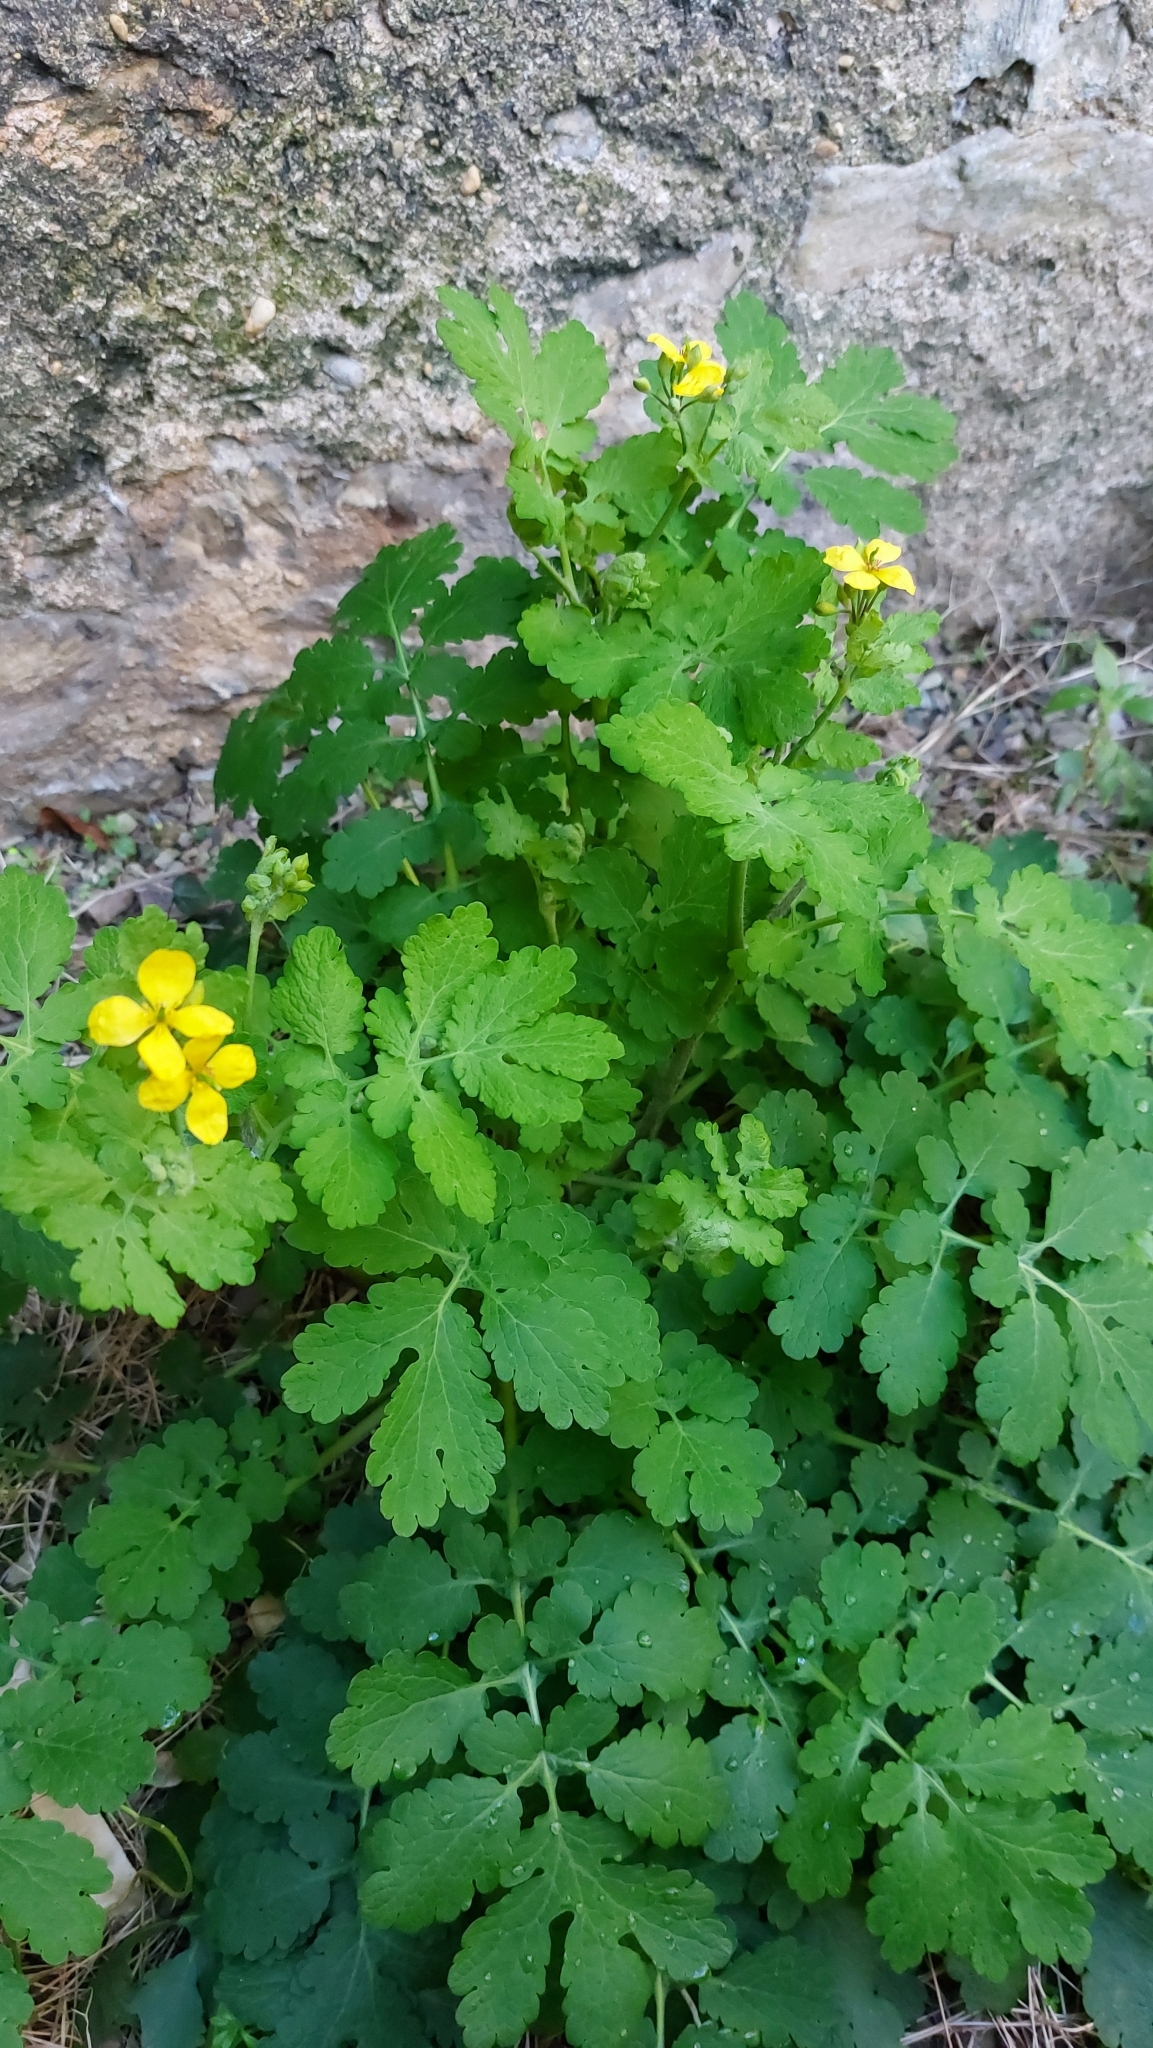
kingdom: Plantae
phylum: Tracheophyta
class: Magnoliopsida
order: Ranunculales
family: Papaveraceae
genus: Chelidonium
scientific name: Chelidonium majus
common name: Greater celandine
